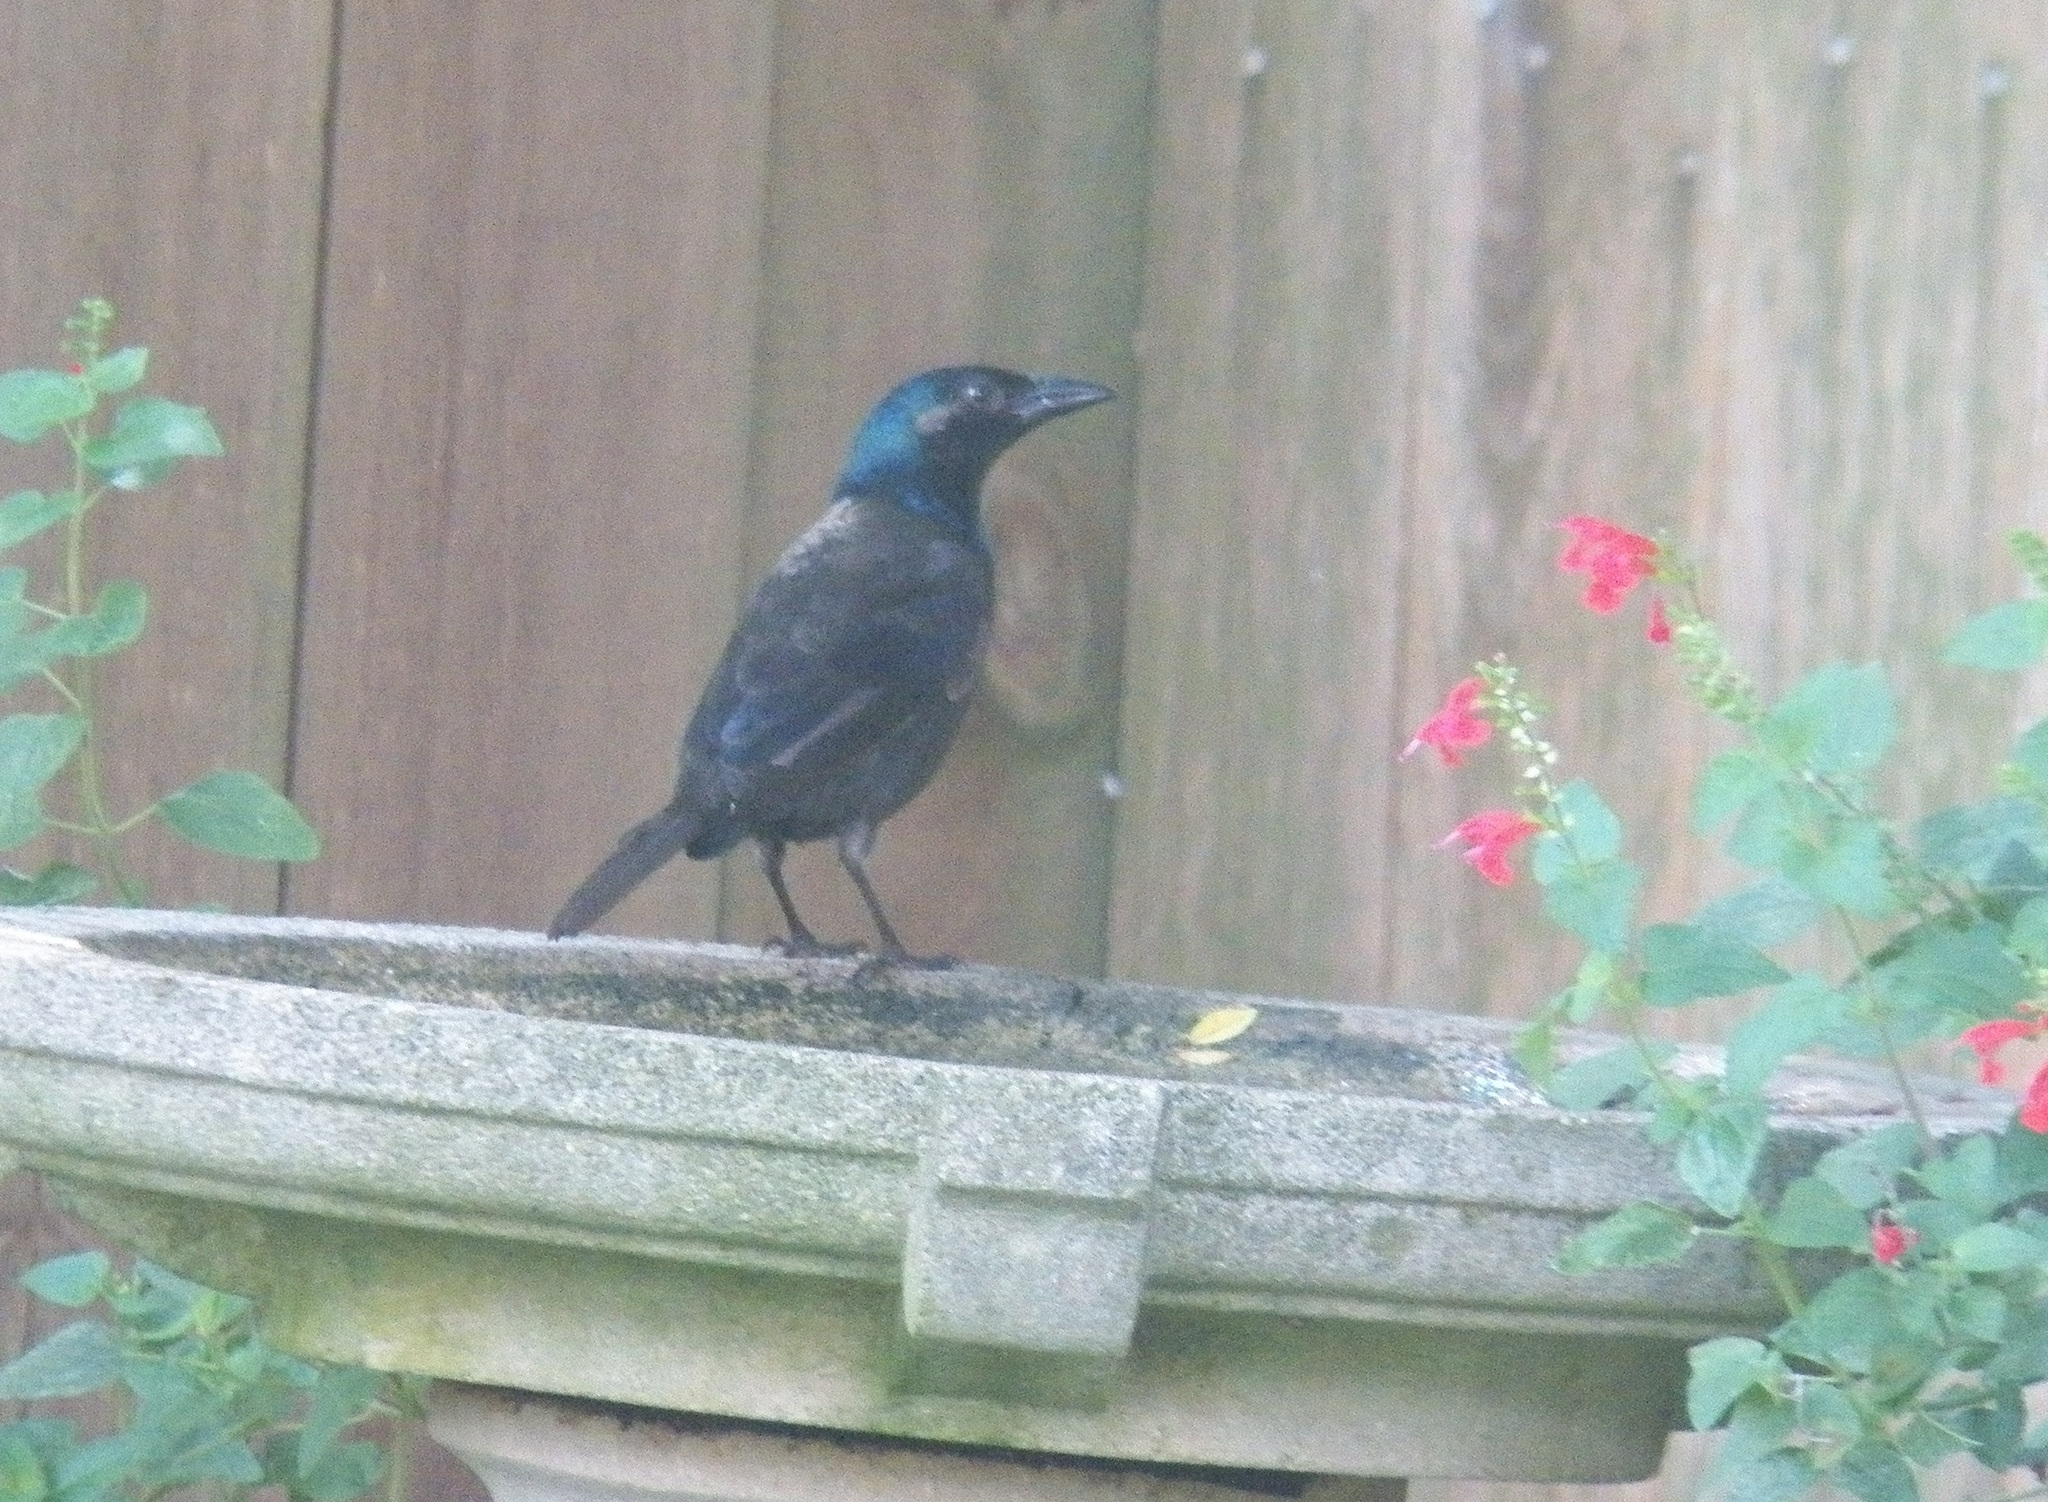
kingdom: Animalia
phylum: Chordata
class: Aves
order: Passeriformes
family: Icteridae
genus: Quiscalus
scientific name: Quiscalus quiscula
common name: Common grackle
